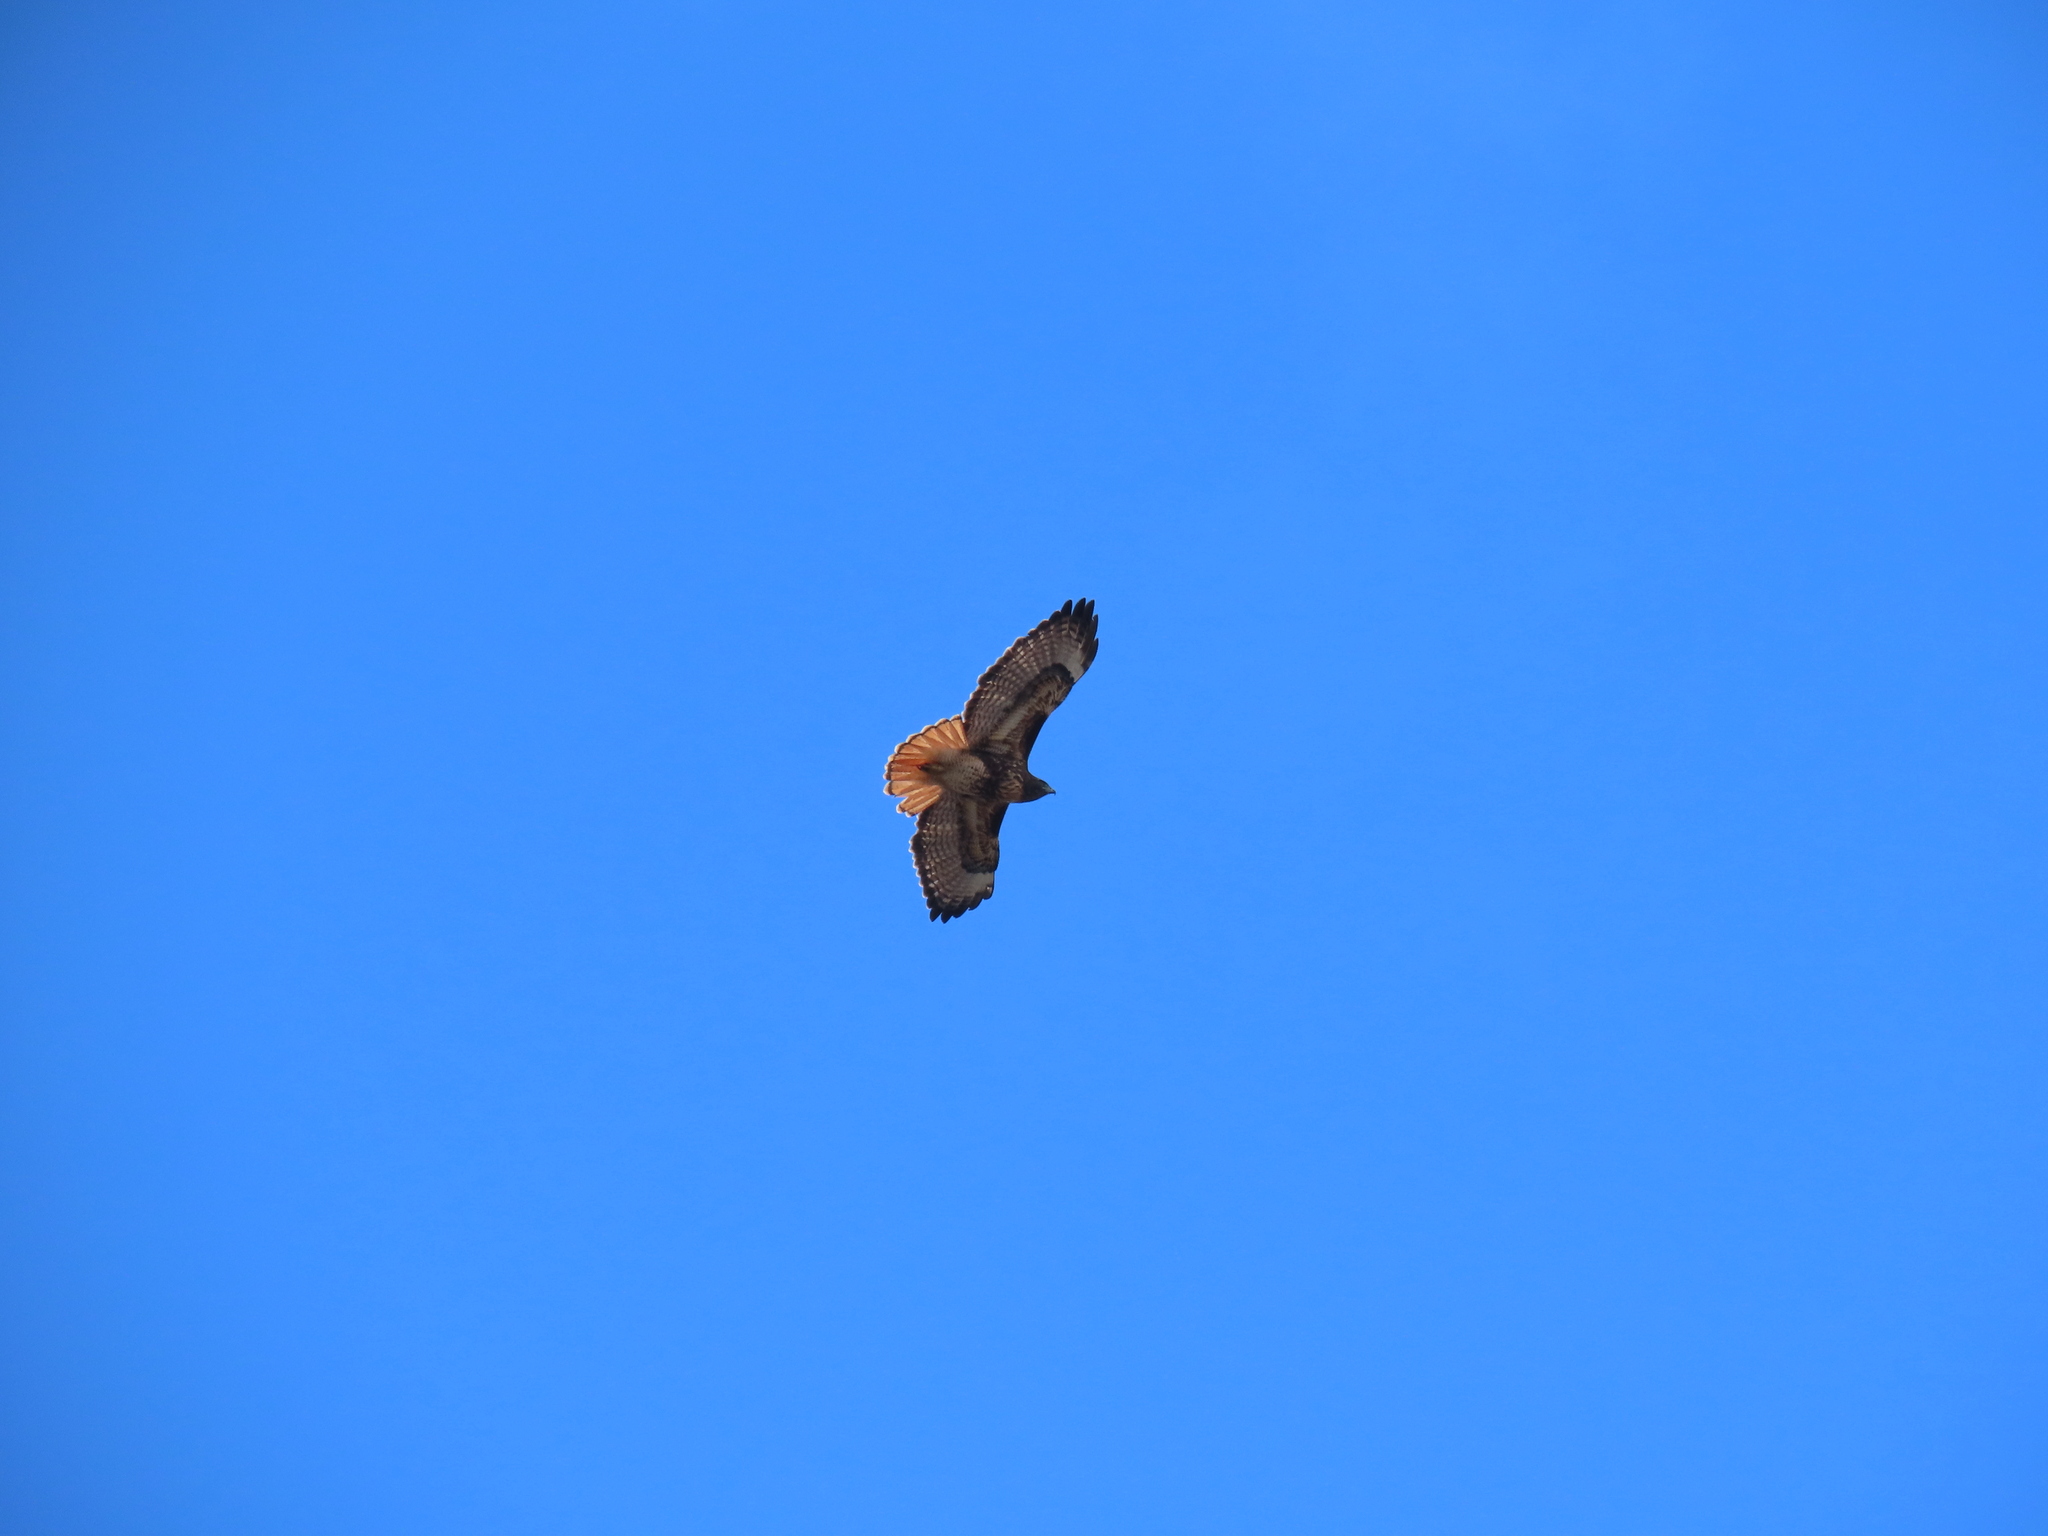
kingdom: Animalia
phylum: Chordata
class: Aves
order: Accipitriformes
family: Accipitridae
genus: Buteo
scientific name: Buteo jamaicensis
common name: Red-tailed hawk
